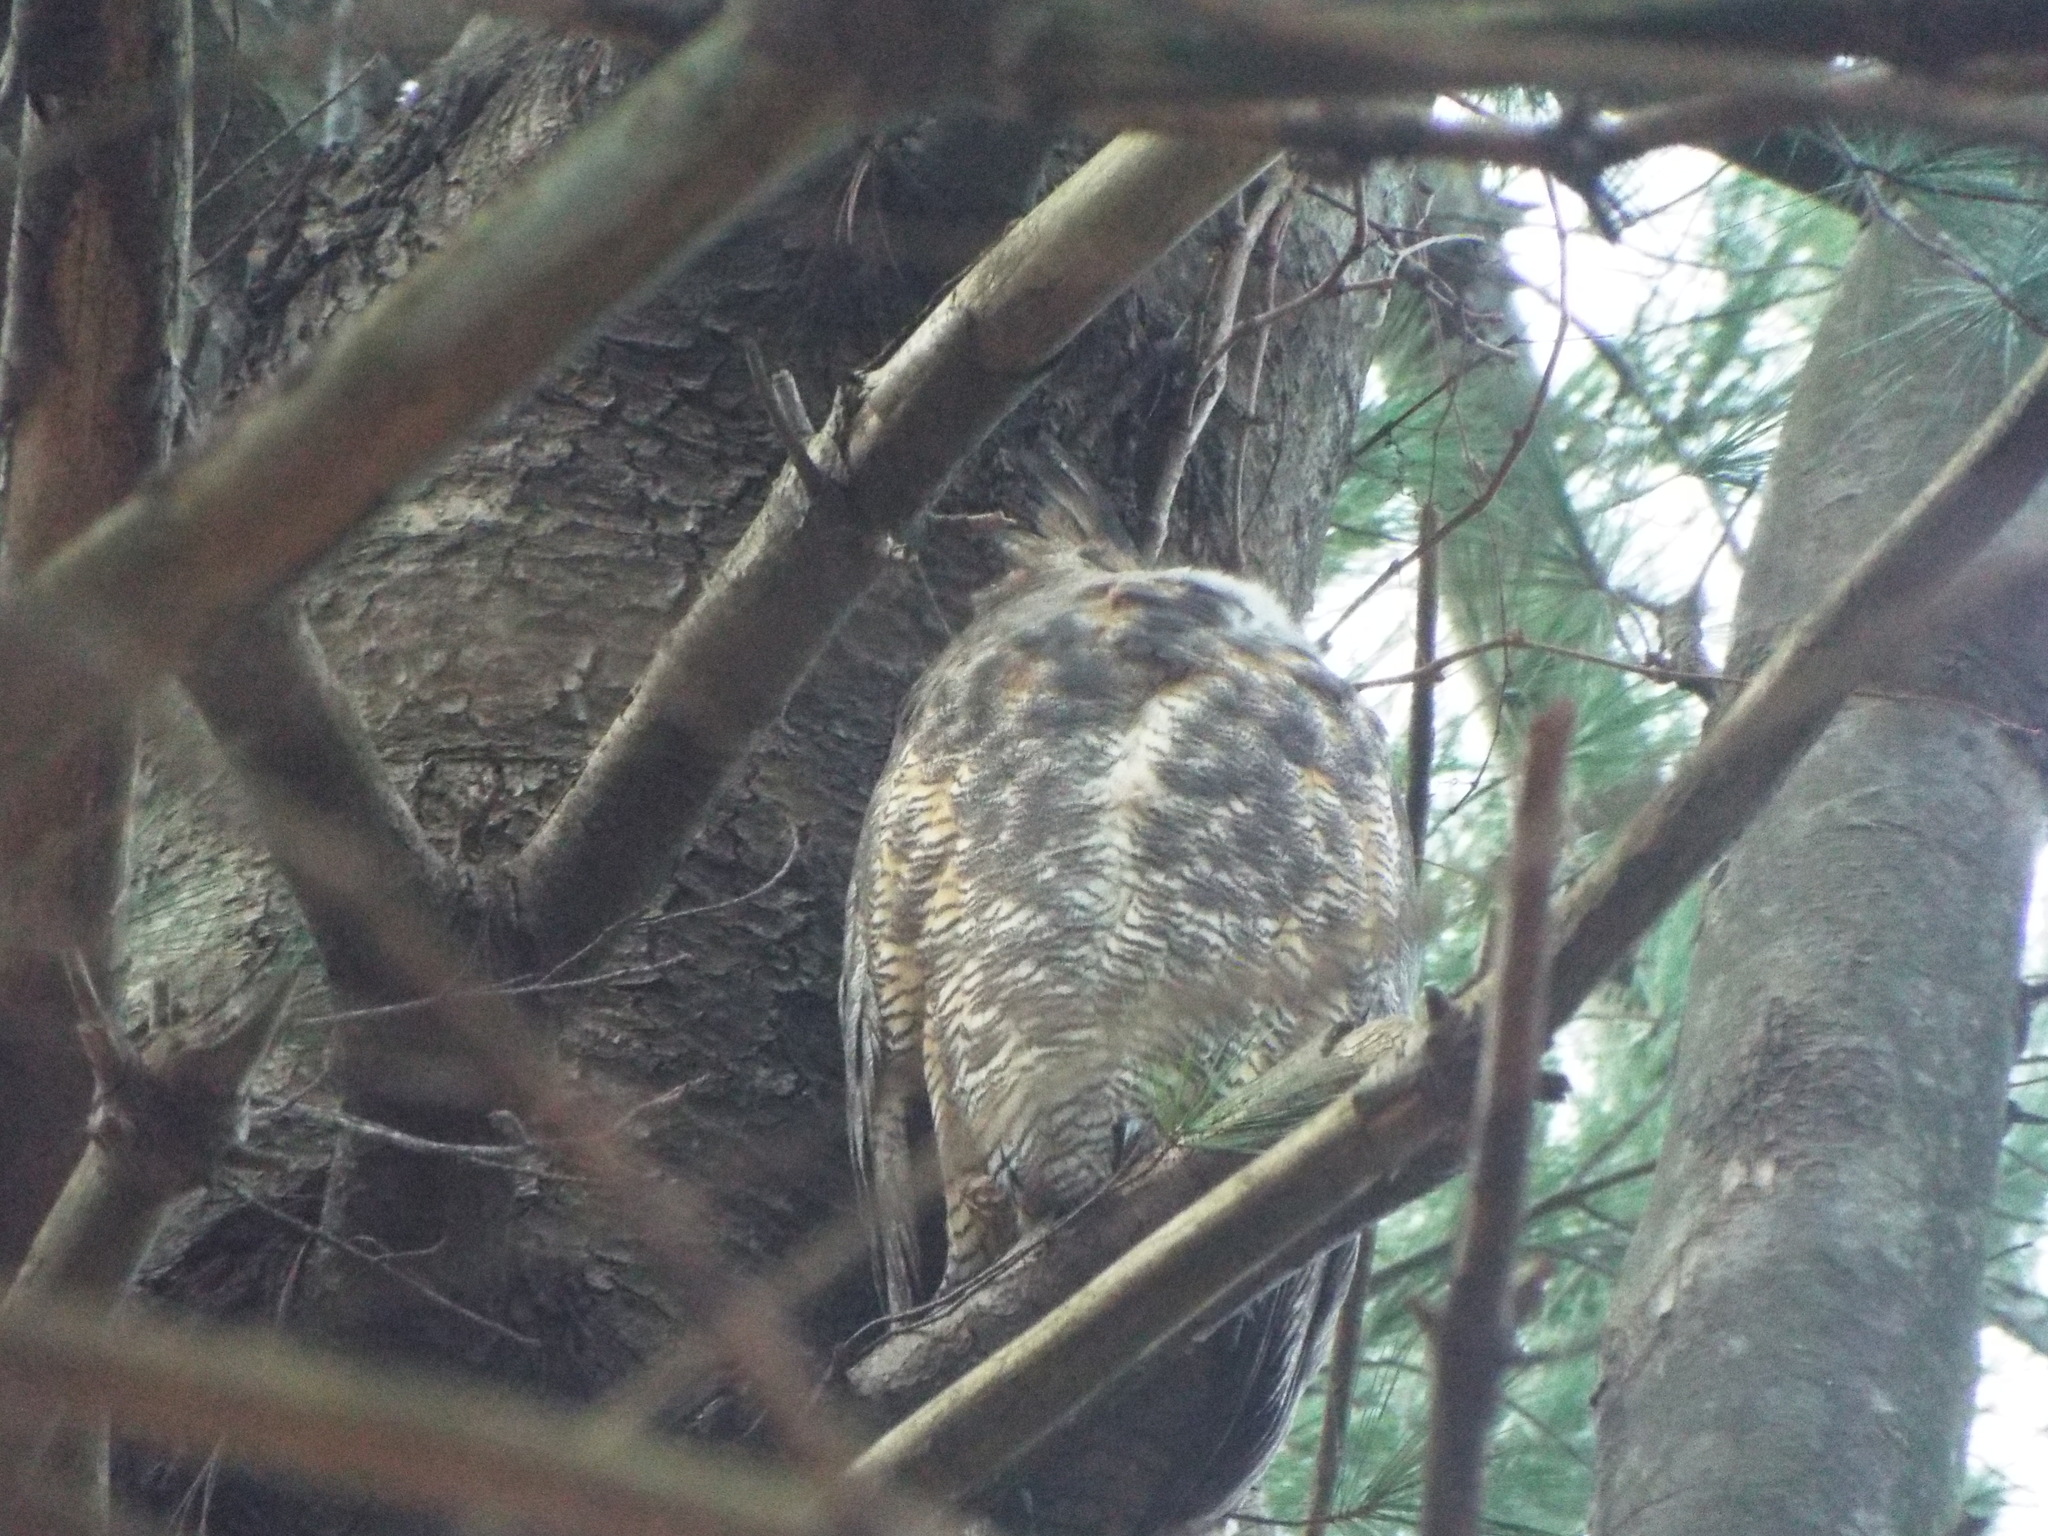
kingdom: Animalia
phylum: Chordata
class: Aves
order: Strigiformes
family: Strigidae
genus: Bubo
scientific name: Bubo virginianus
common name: Great horned owl
